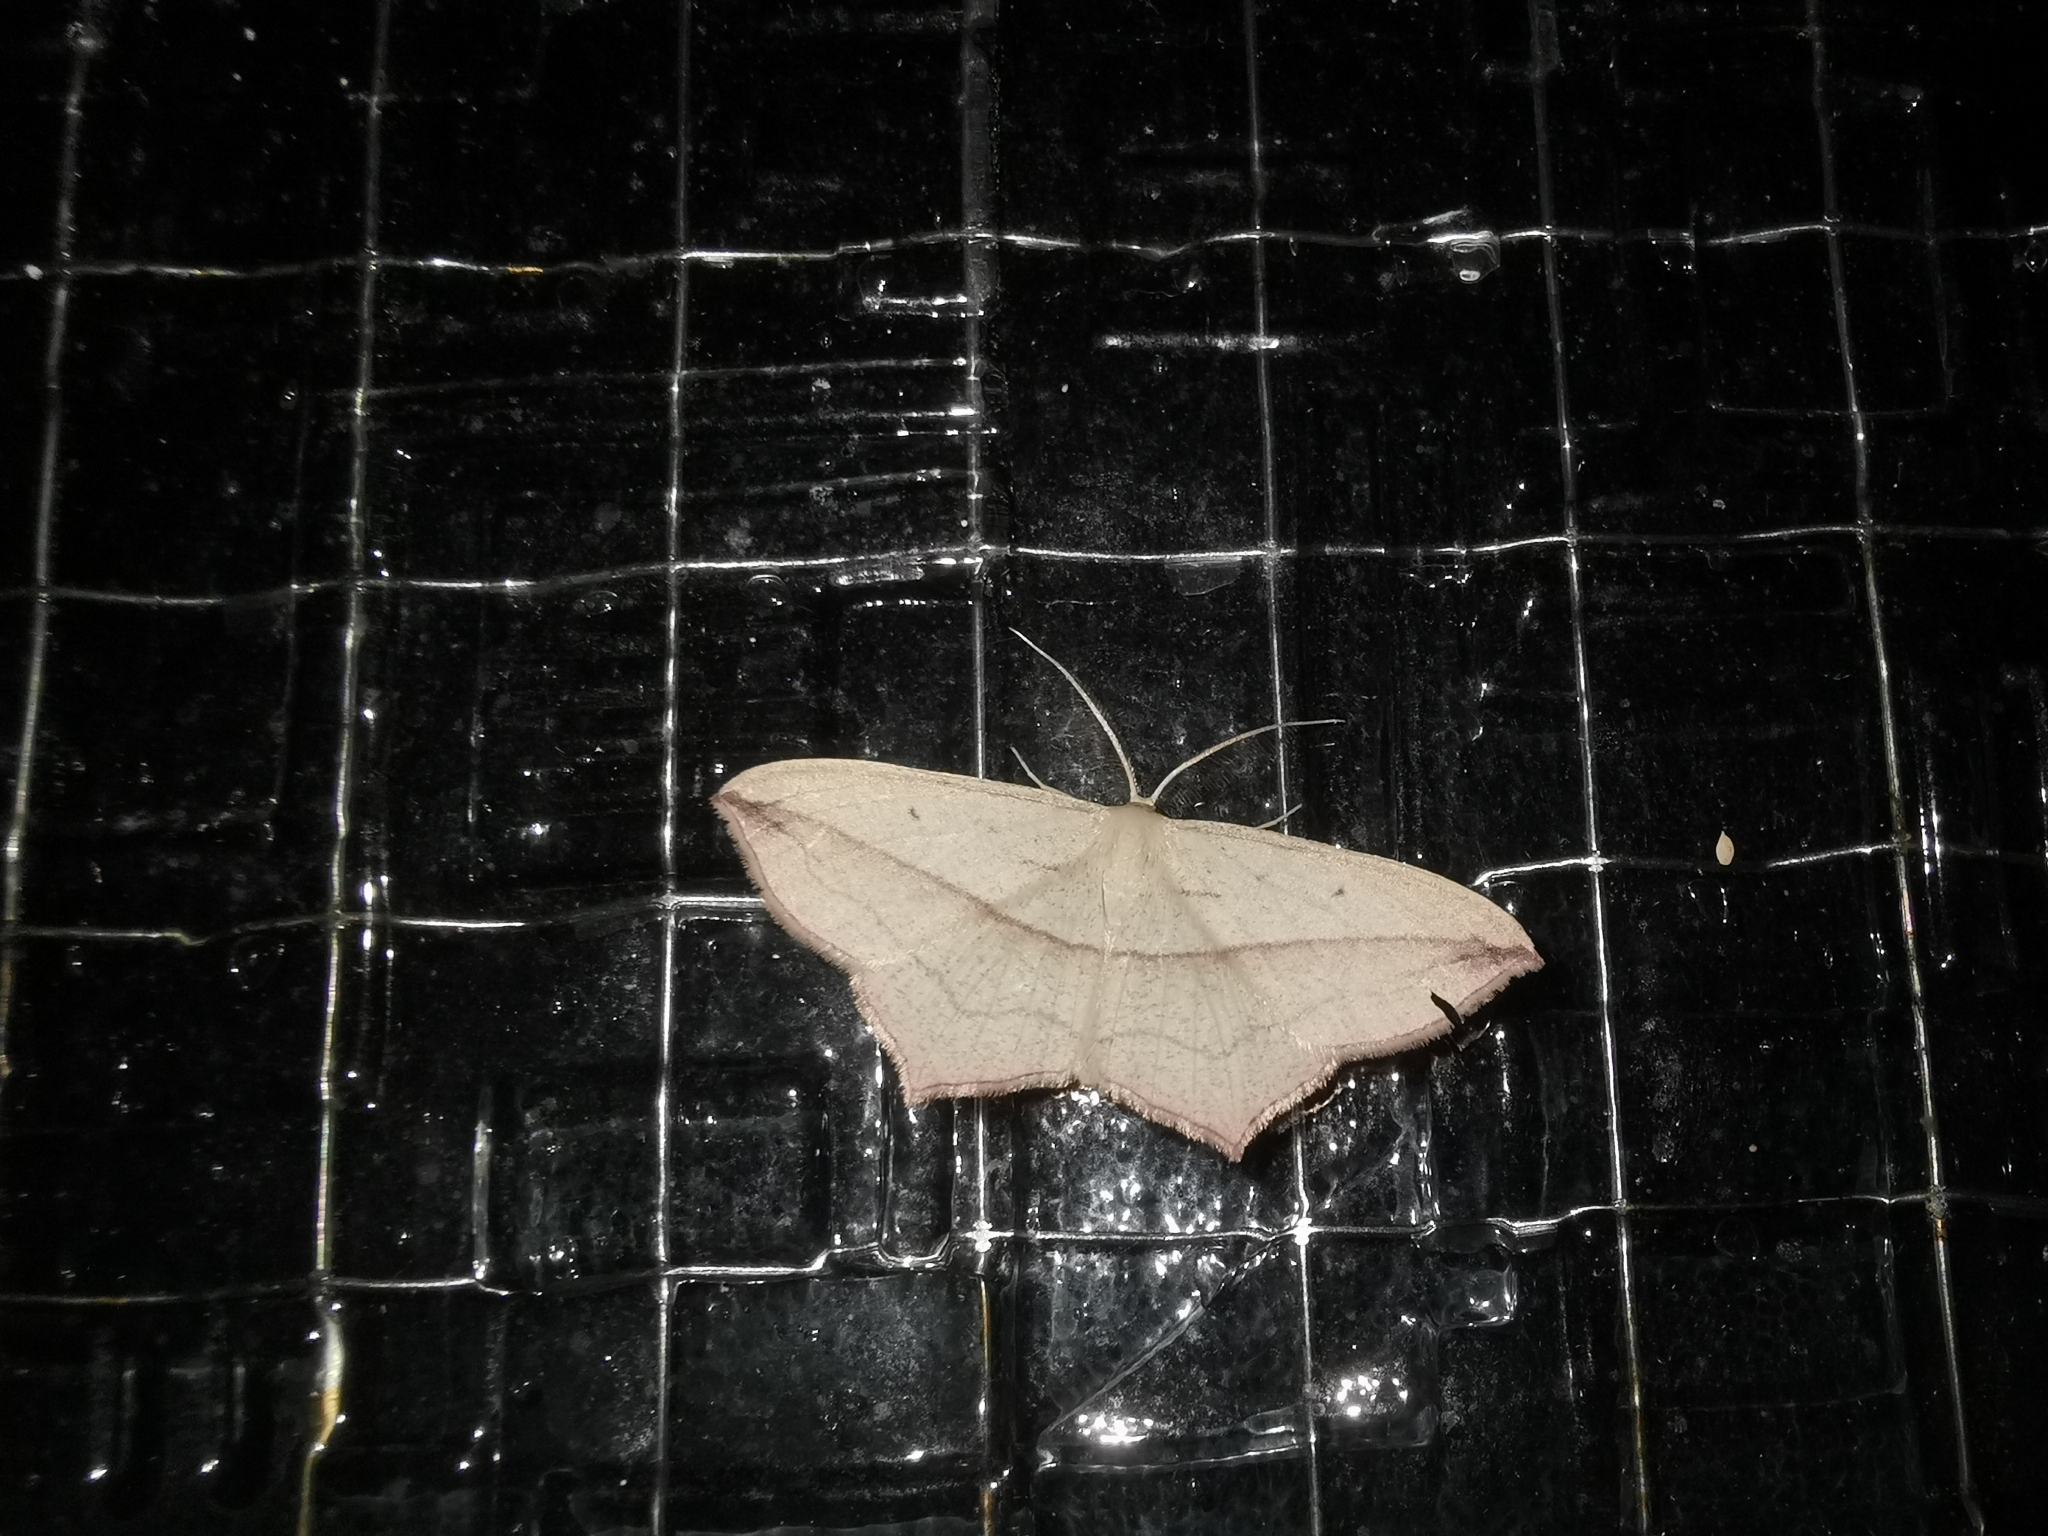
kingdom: Animalia
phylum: Arthropoda
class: Insecta
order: Lepidoptera
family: Geometridae
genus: Timandra
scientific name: Timandra comae
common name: Blood-vein
